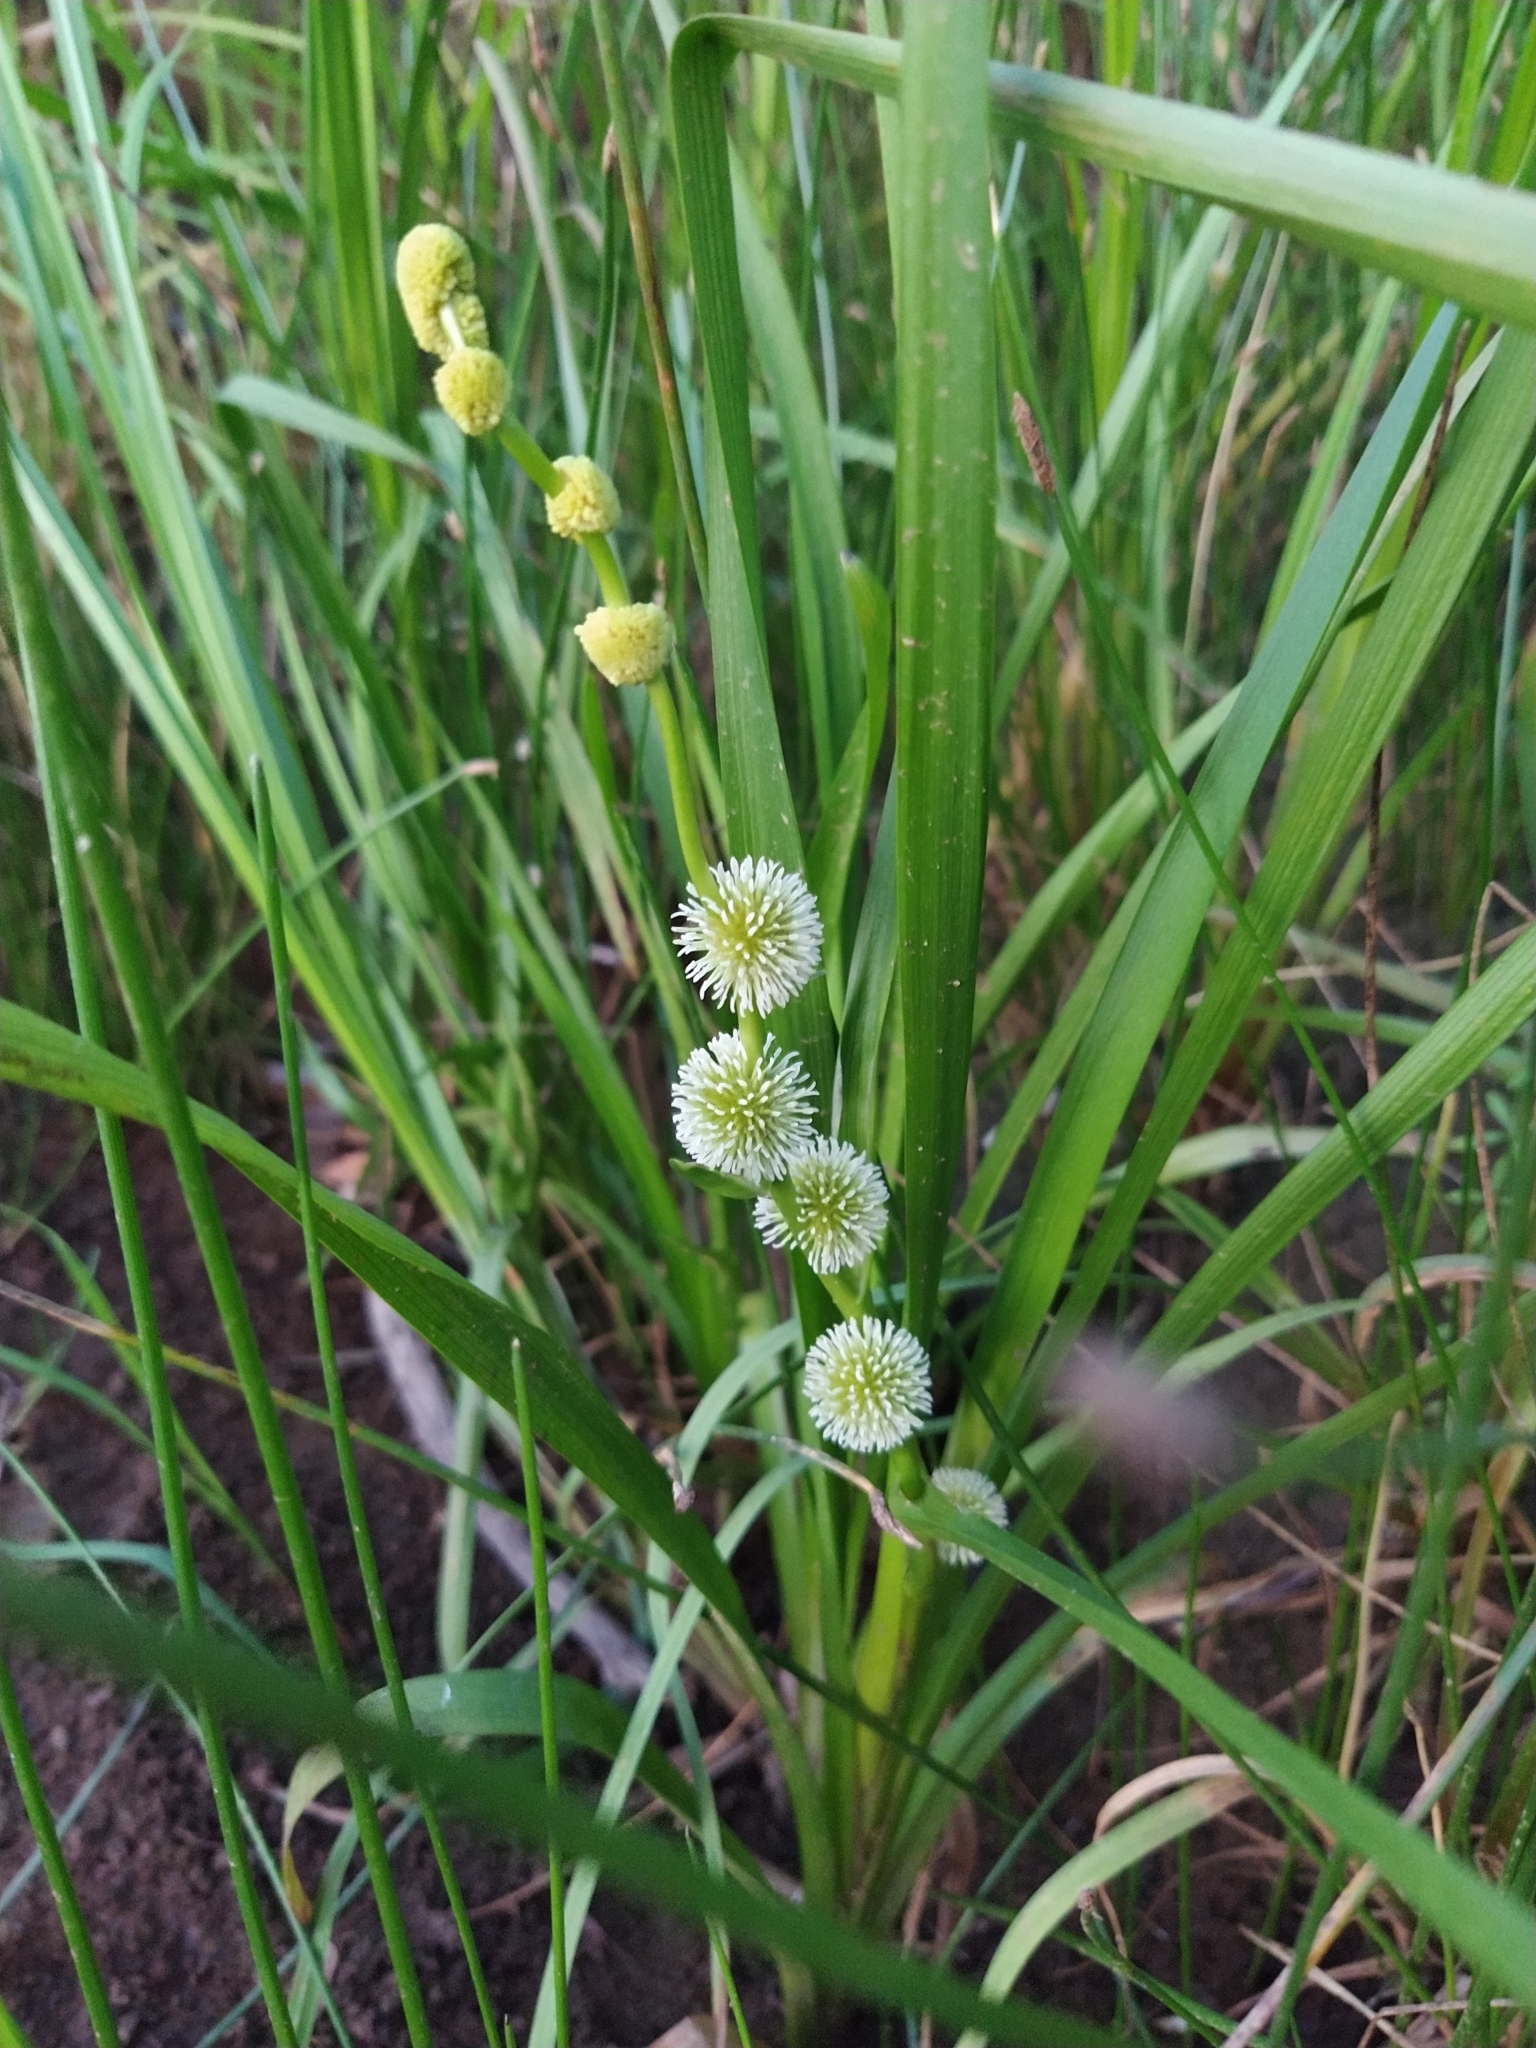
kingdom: Plantae
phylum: Tracheophyta
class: Liliopsida
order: Poales
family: Typhaceae
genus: Sparganium
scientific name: Sparganium emersum
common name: Unbranched bur-reed
